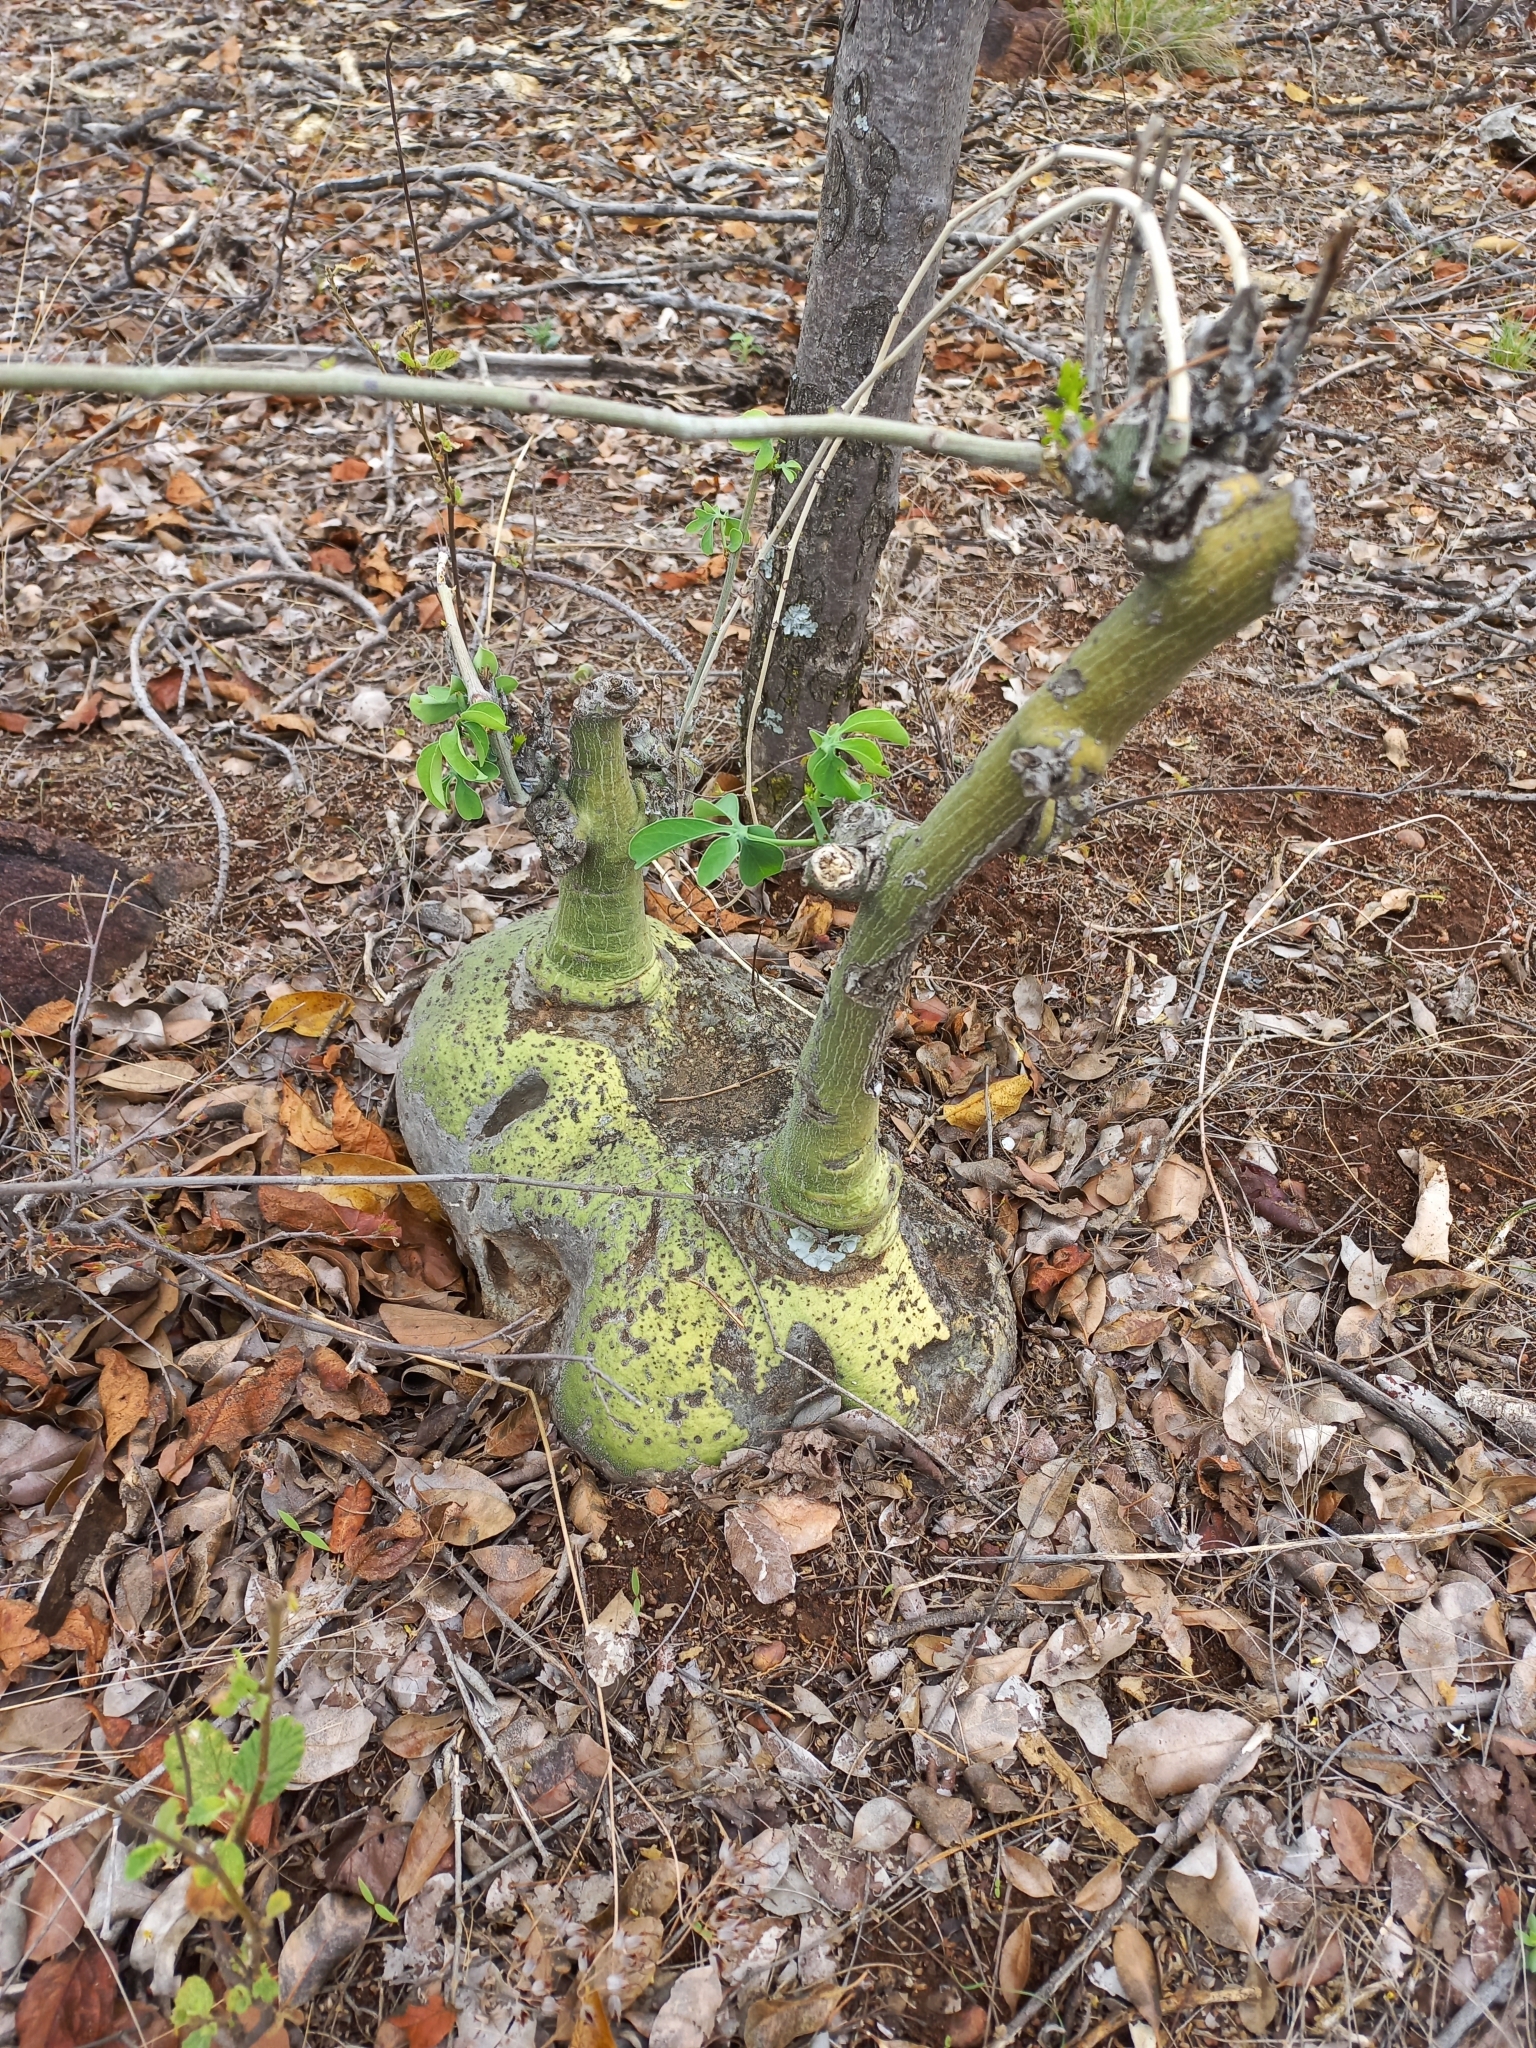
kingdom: Plantae
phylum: Tracheophyta
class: Magnoliopsida
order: Malpighiales
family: Passifloraceae
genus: Adenia
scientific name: Adenia glauca
